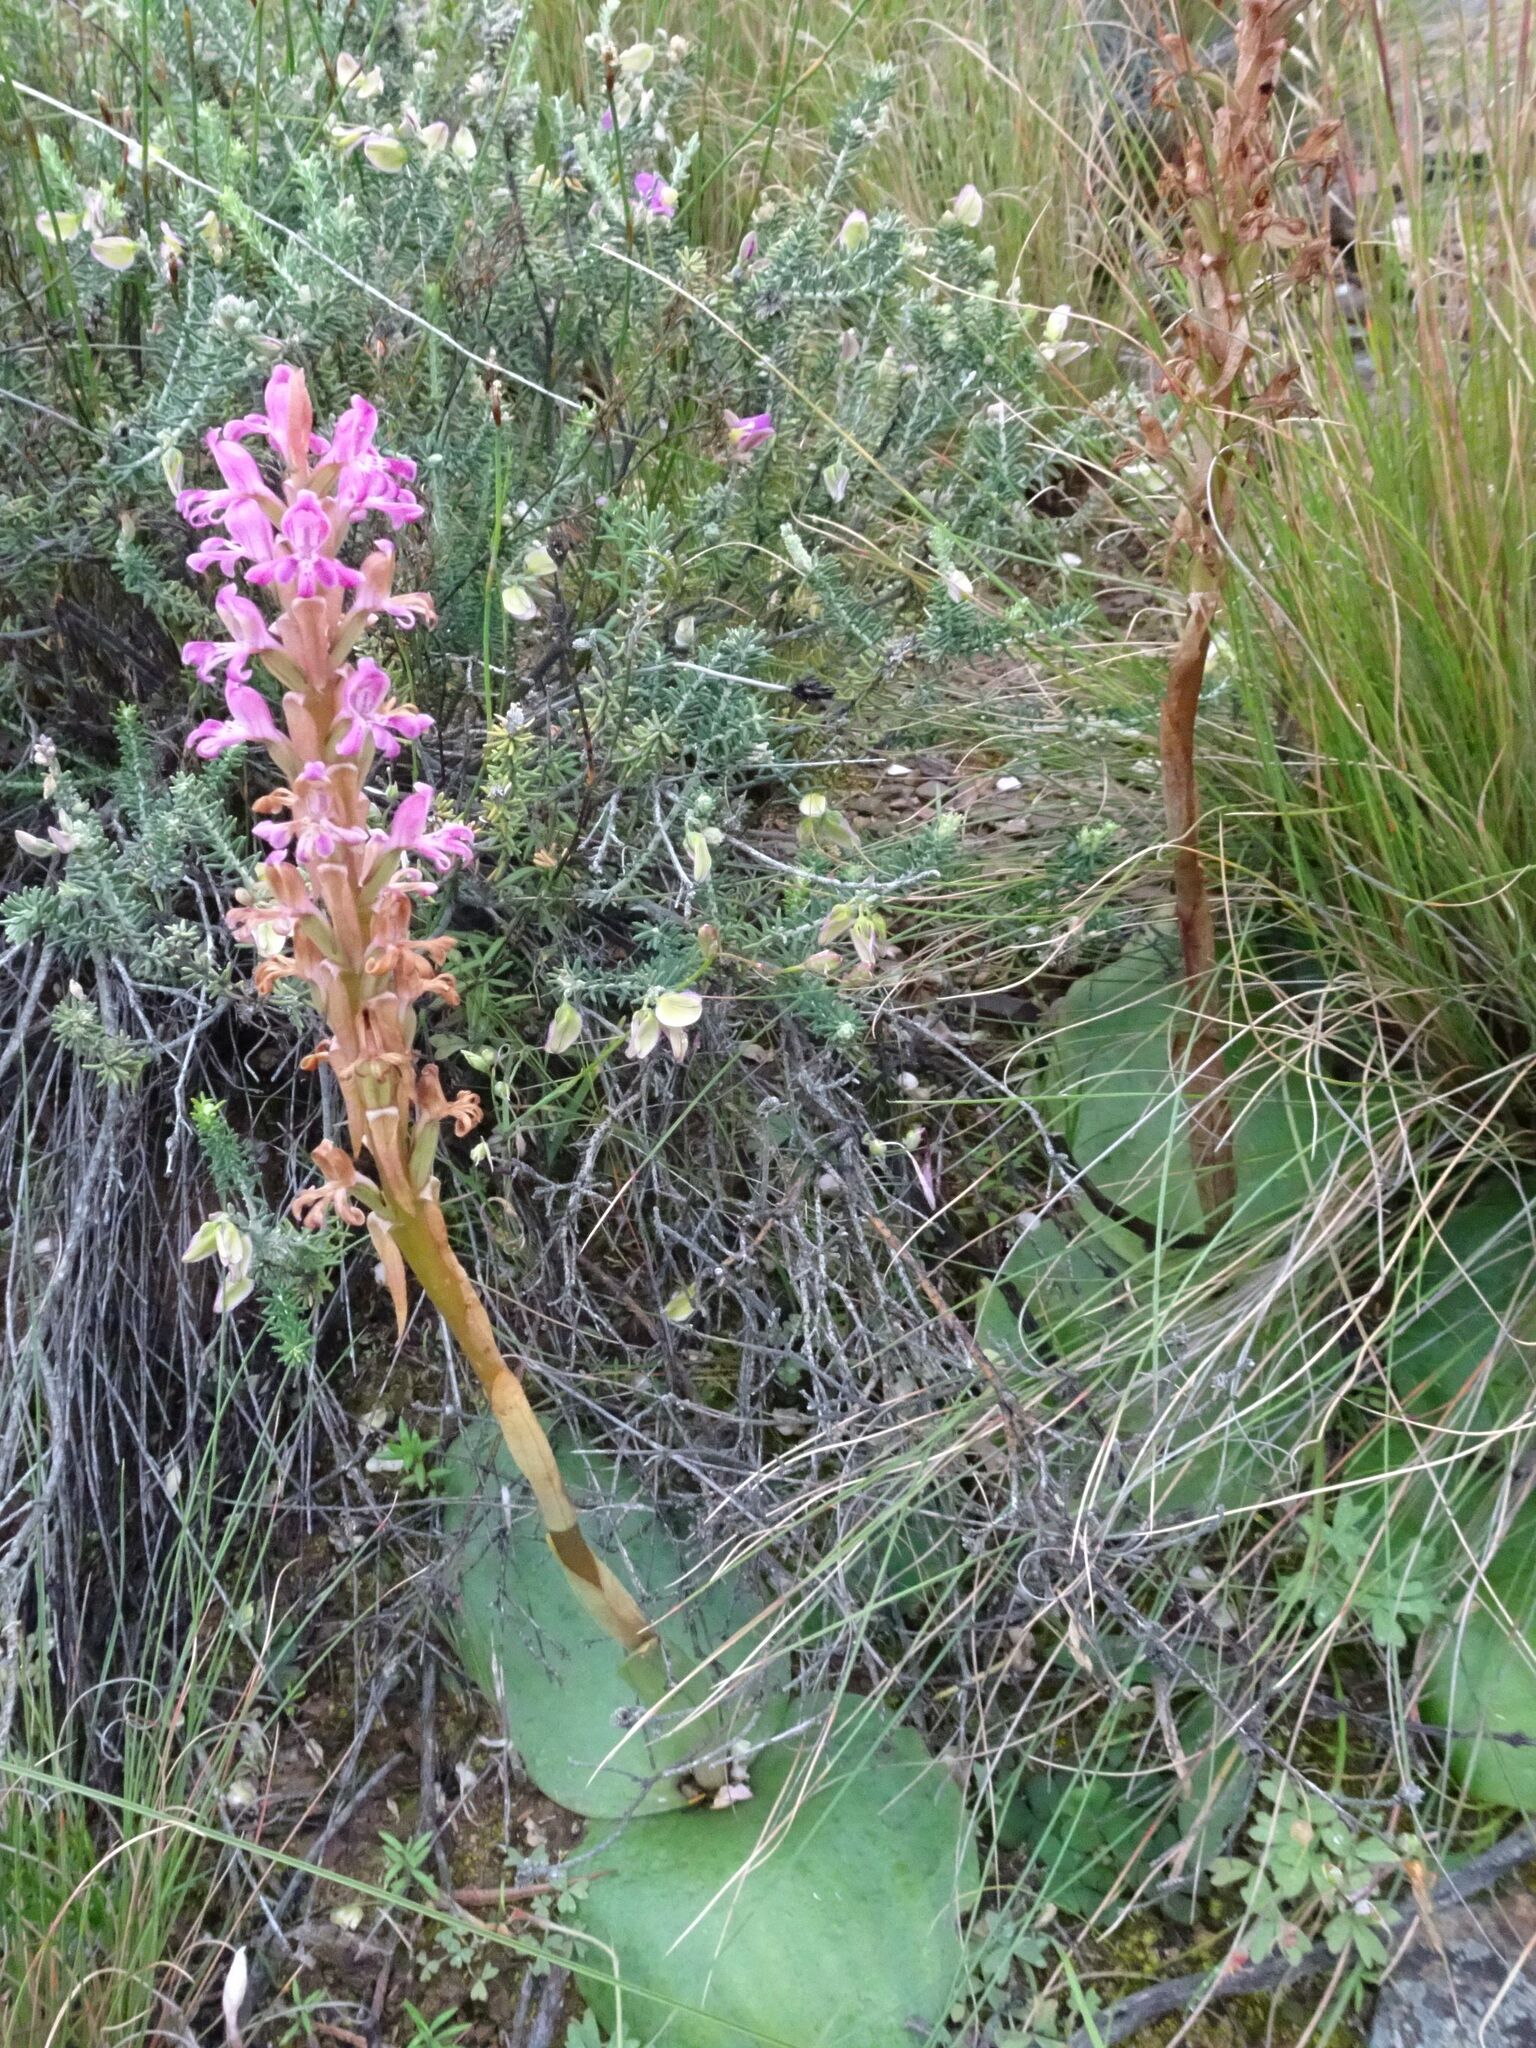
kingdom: Plantae
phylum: Tracheophyta
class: Liliopsida
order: Asparagales
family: Orchidaceae
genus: Satyrium
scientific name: Satyrium erectum
